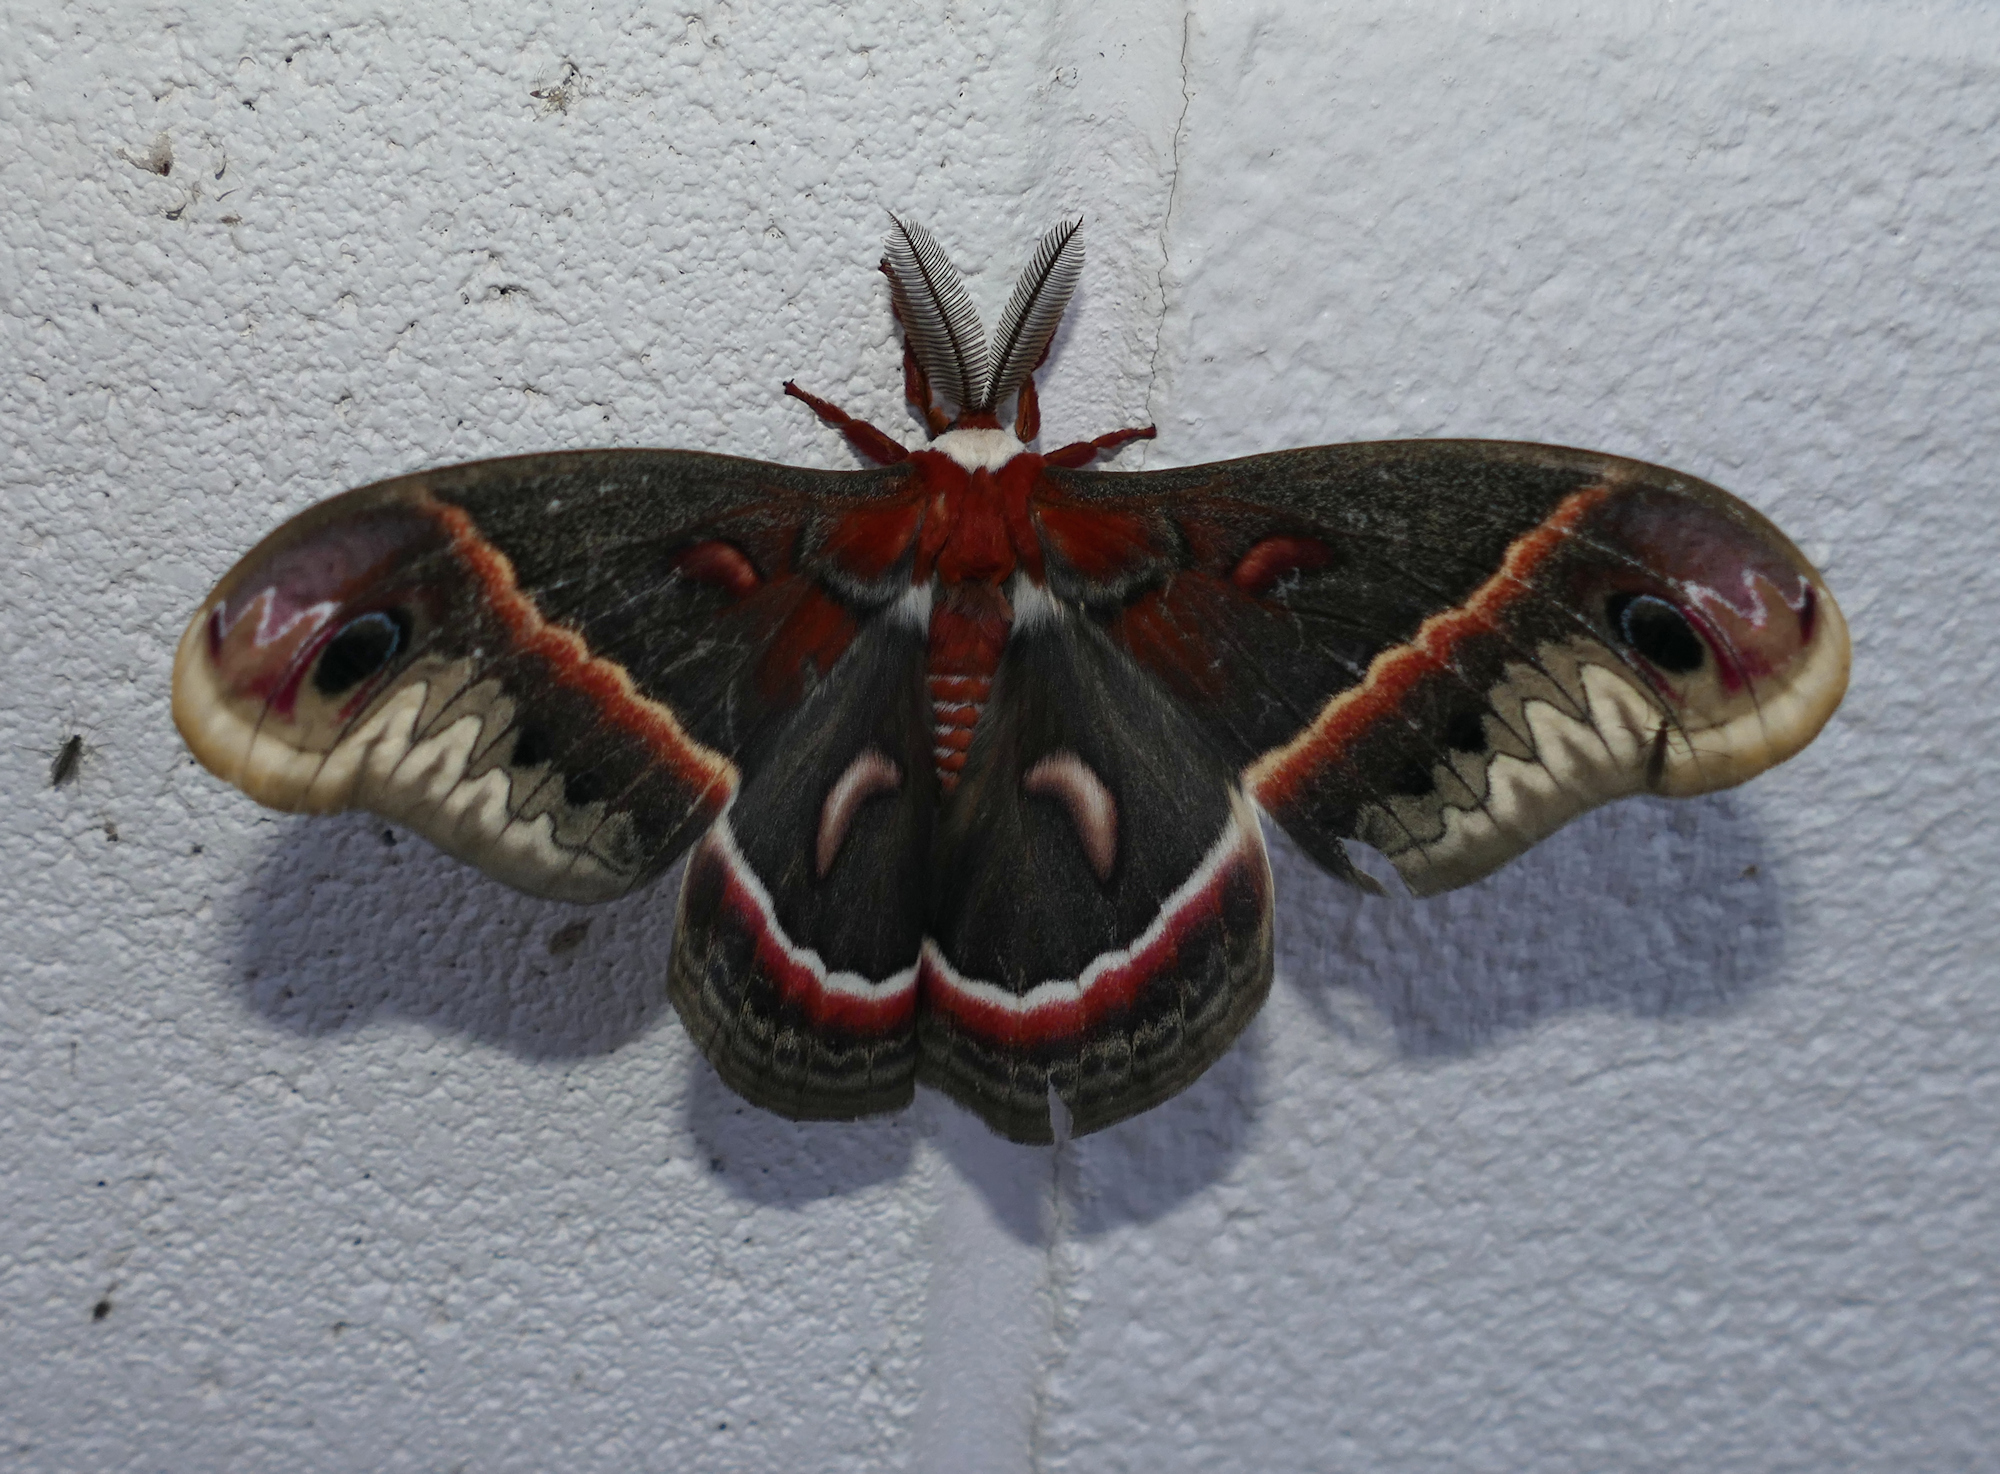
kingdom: Animalia
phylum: Arthropoda
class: Insecta
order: Lepidoptera
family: Saturniidae
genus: Hyalophora
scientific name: Hyalophora cecropia
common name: Cecropia silkmoth
